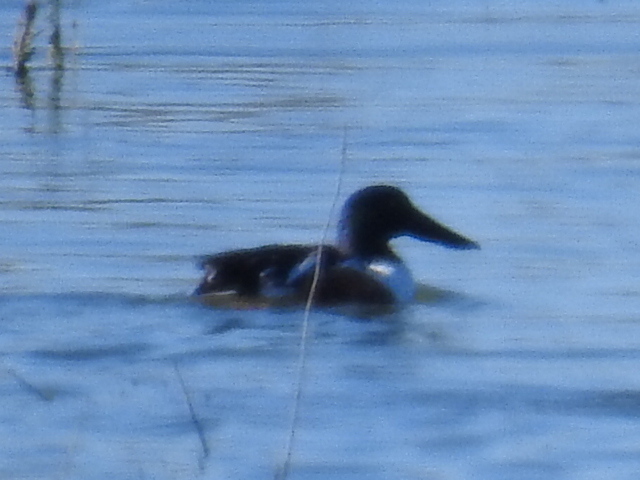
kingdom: Animalia
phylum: Chordata
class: Aves
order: Anseriformes
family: Anatidae
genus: Spatula
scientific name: Spatula clypeata
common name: Northern shoveler
